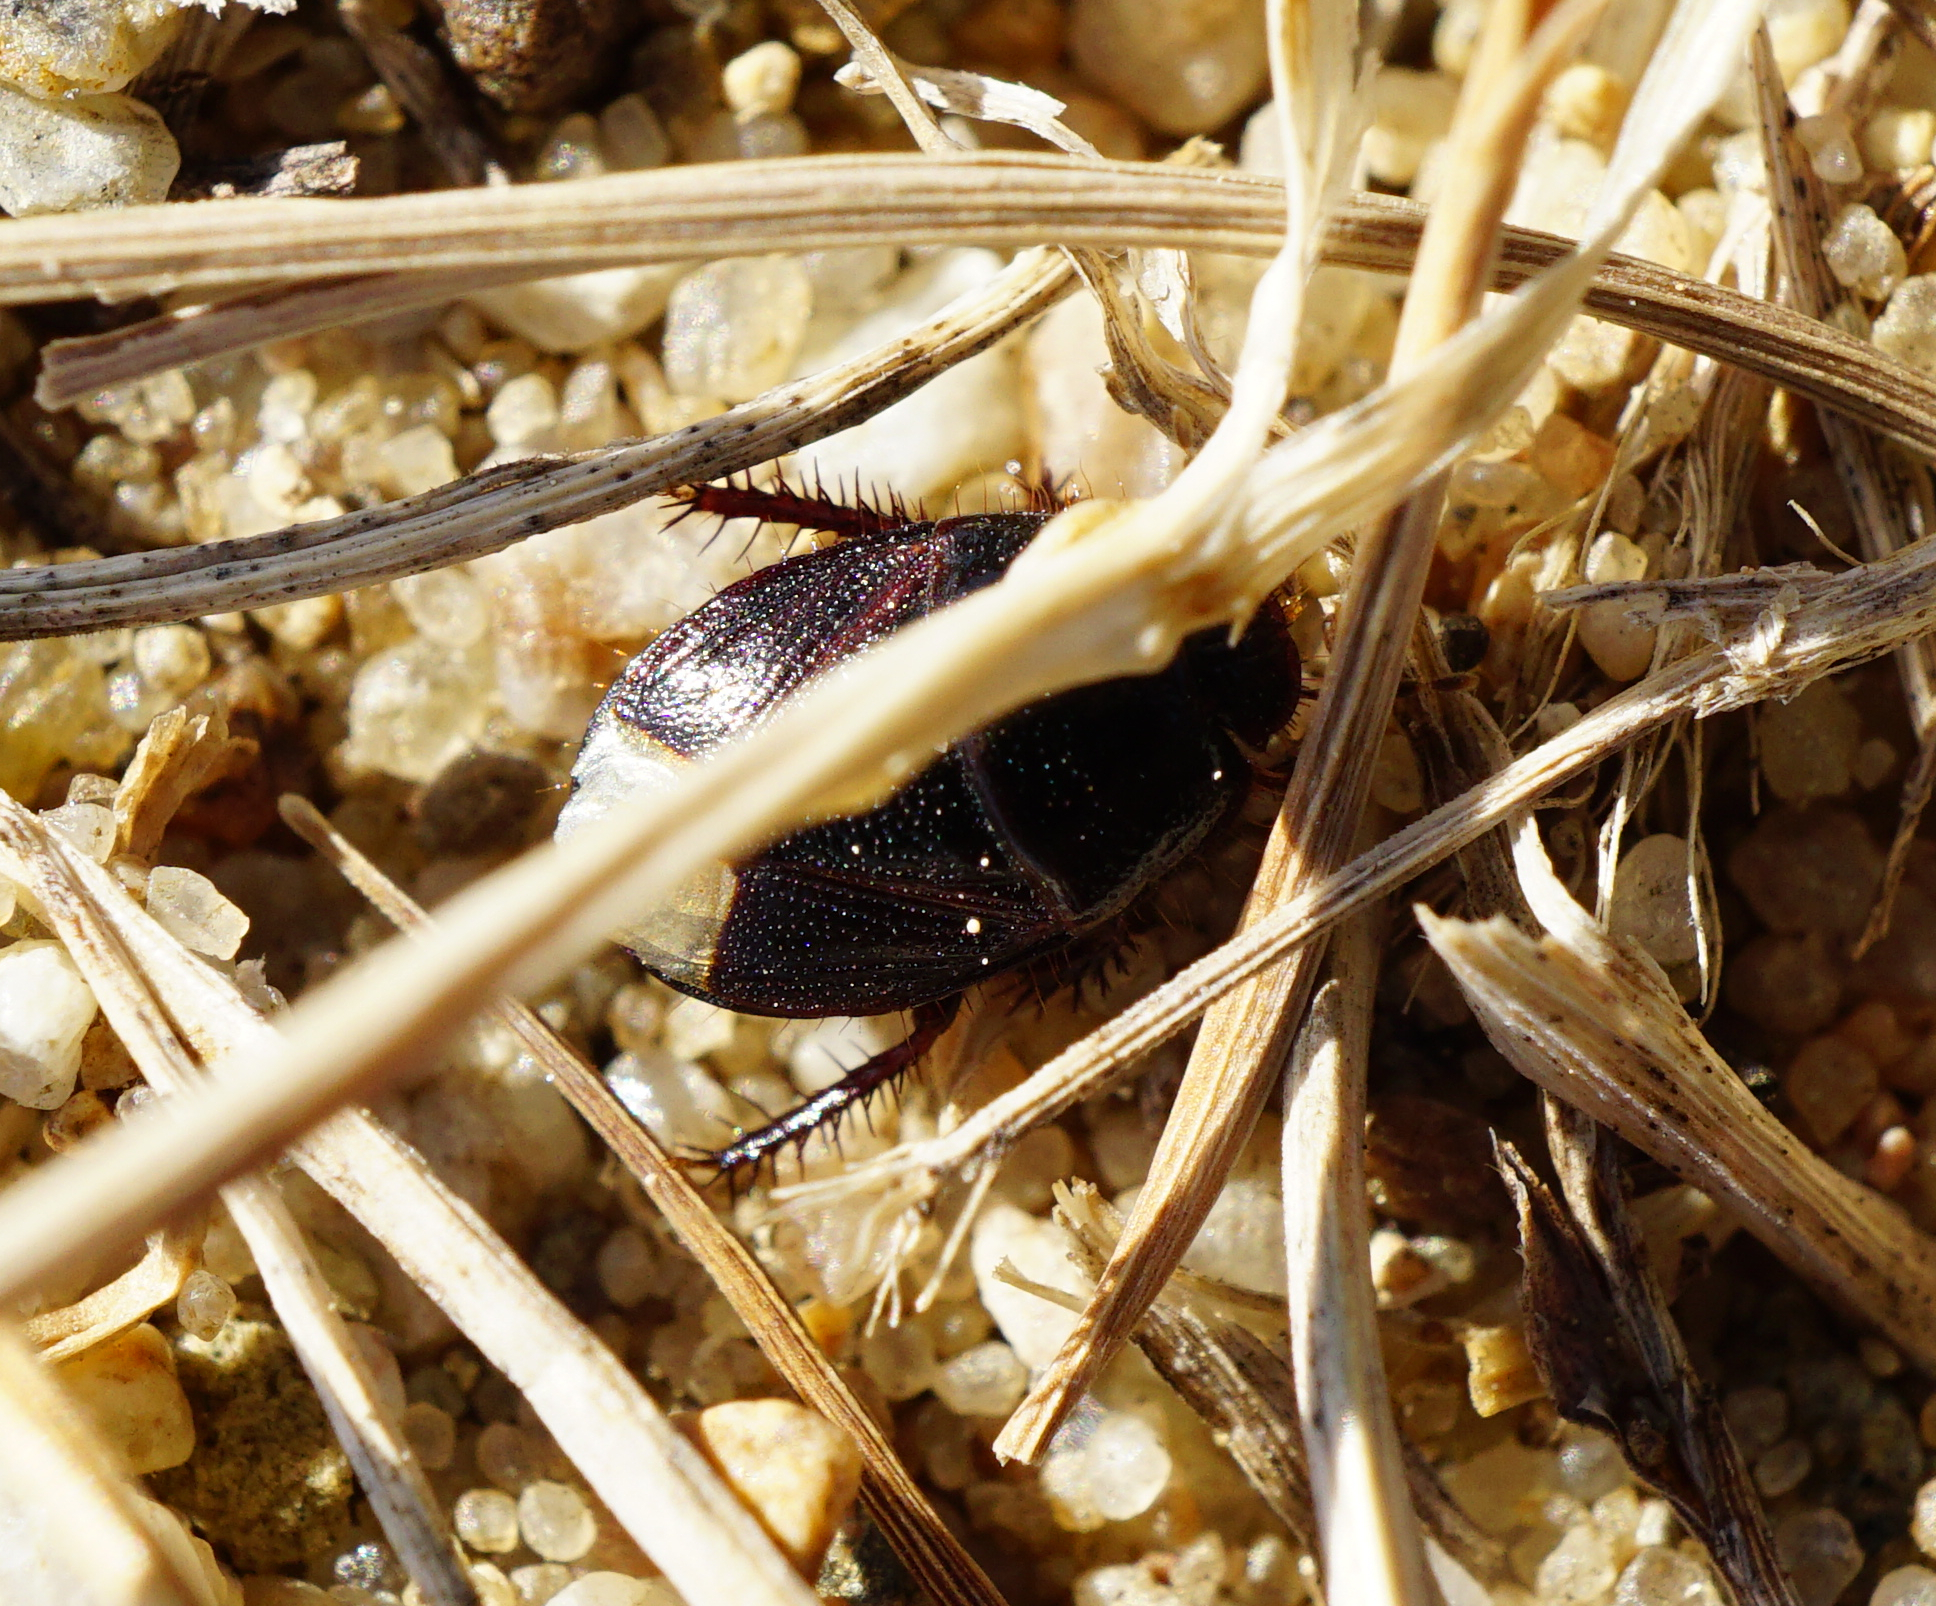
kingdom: Animalia
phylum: Arthropoda
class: Insecta
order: Hemiptera
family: Cydnidae
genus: Microporus
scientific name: Microporus nigrita
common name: Burrower bug
